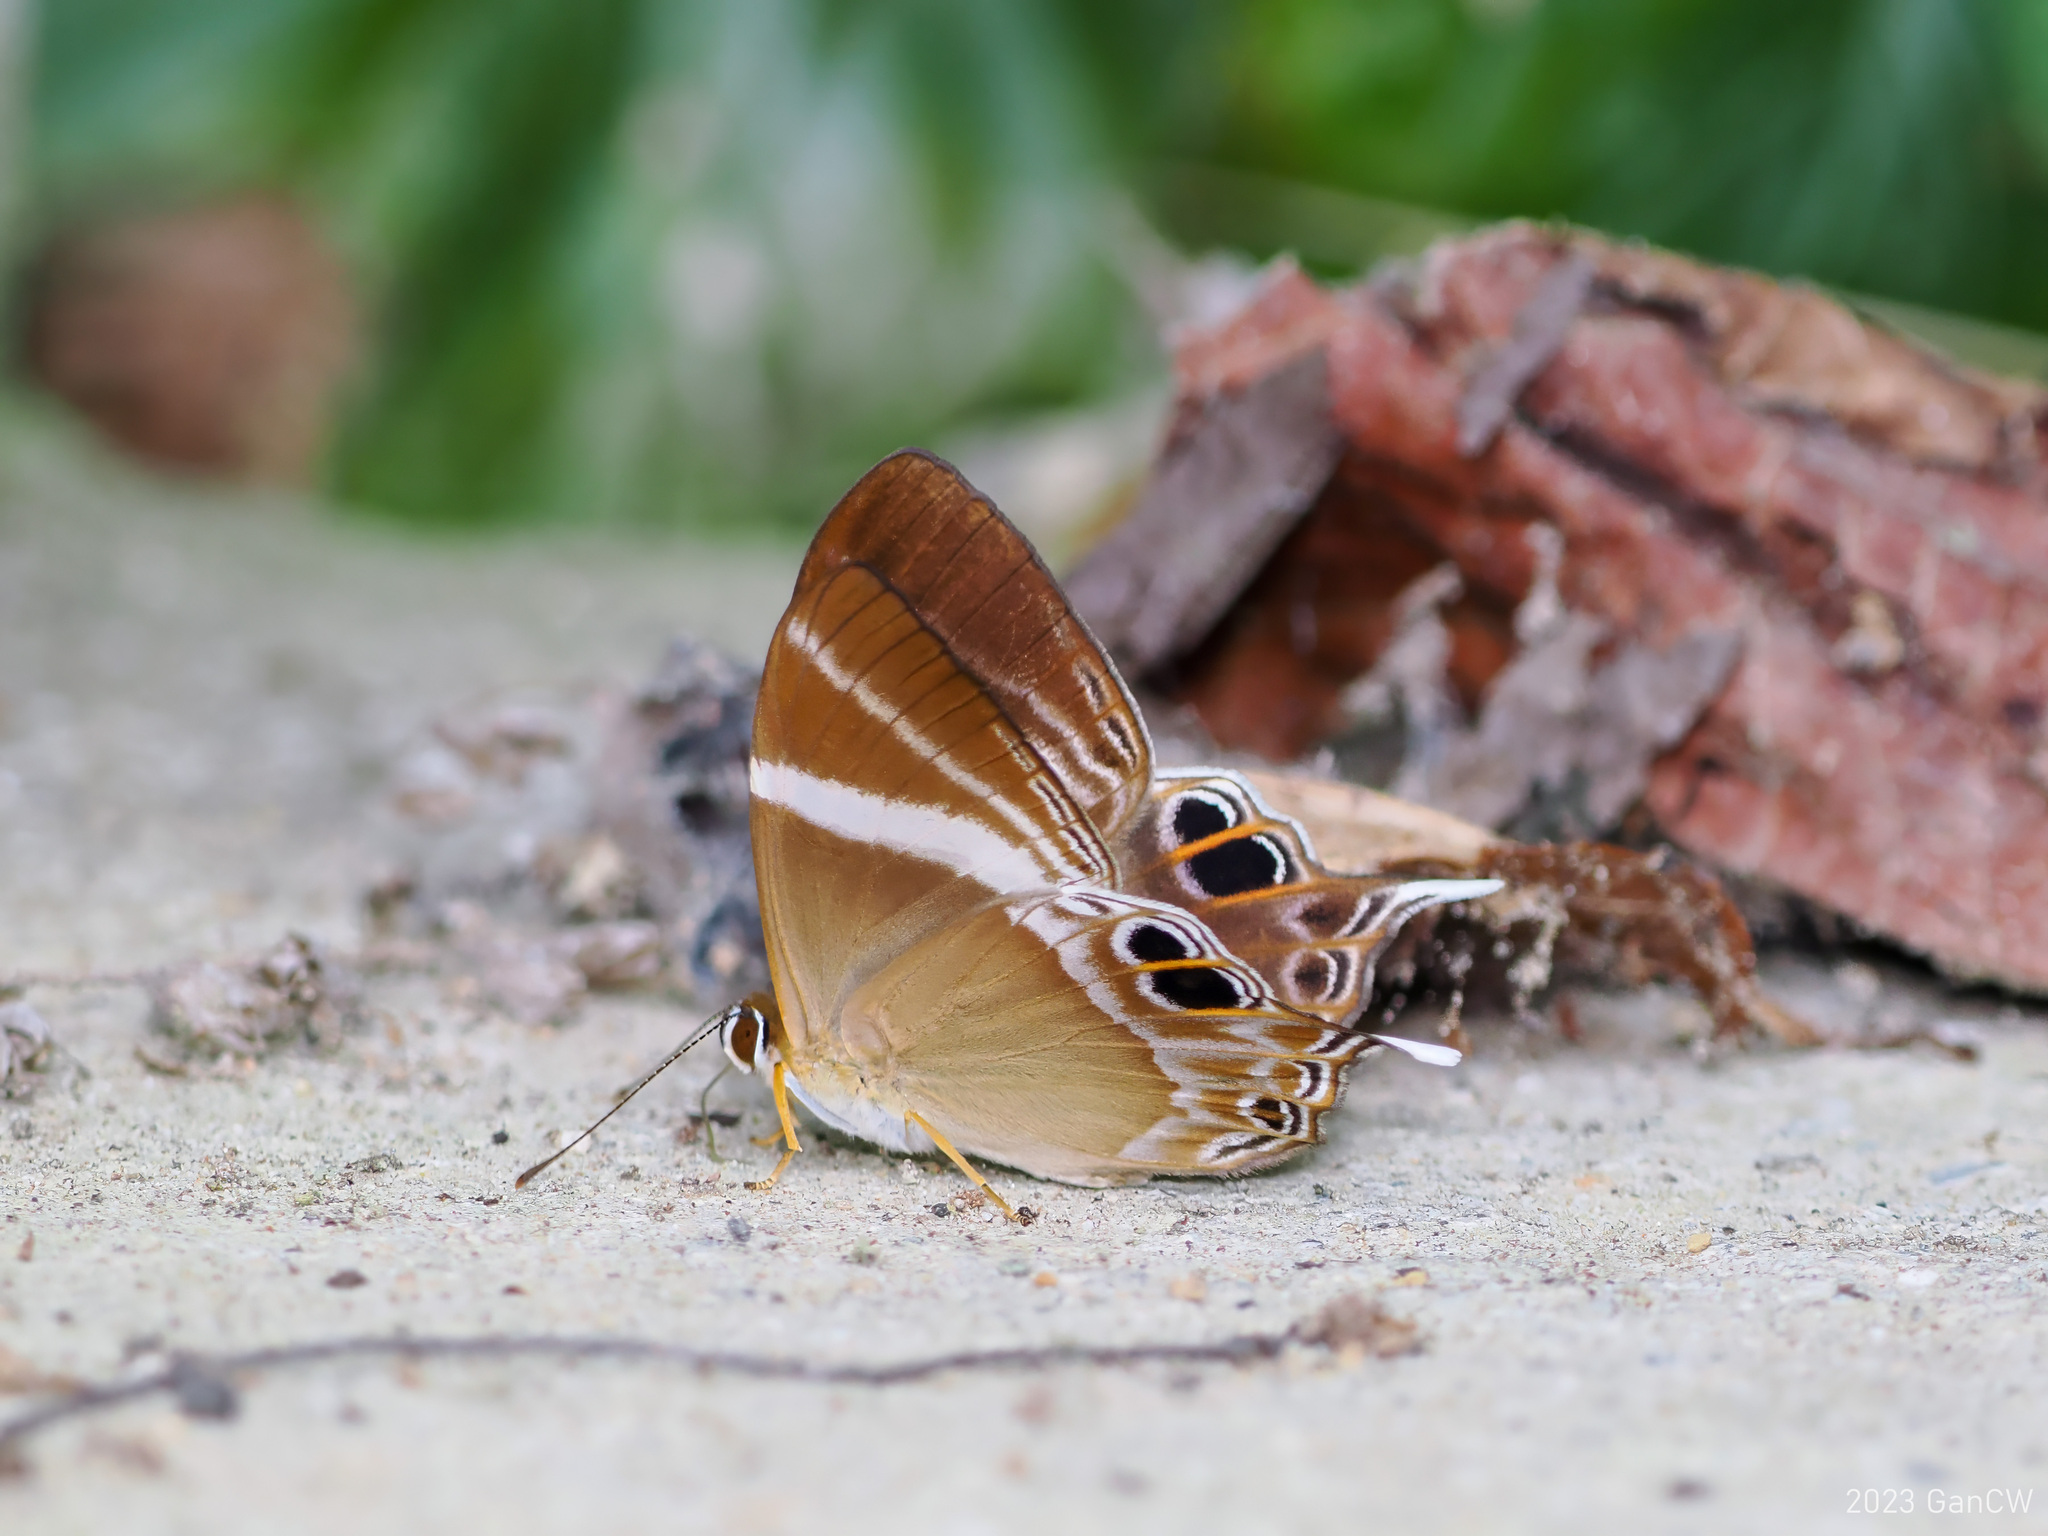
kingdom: Animalia
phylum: Arthropoda
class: Insecta
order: Lepidoptera
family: Lycaenidae
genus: Abisara
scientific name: Abisara neophron
